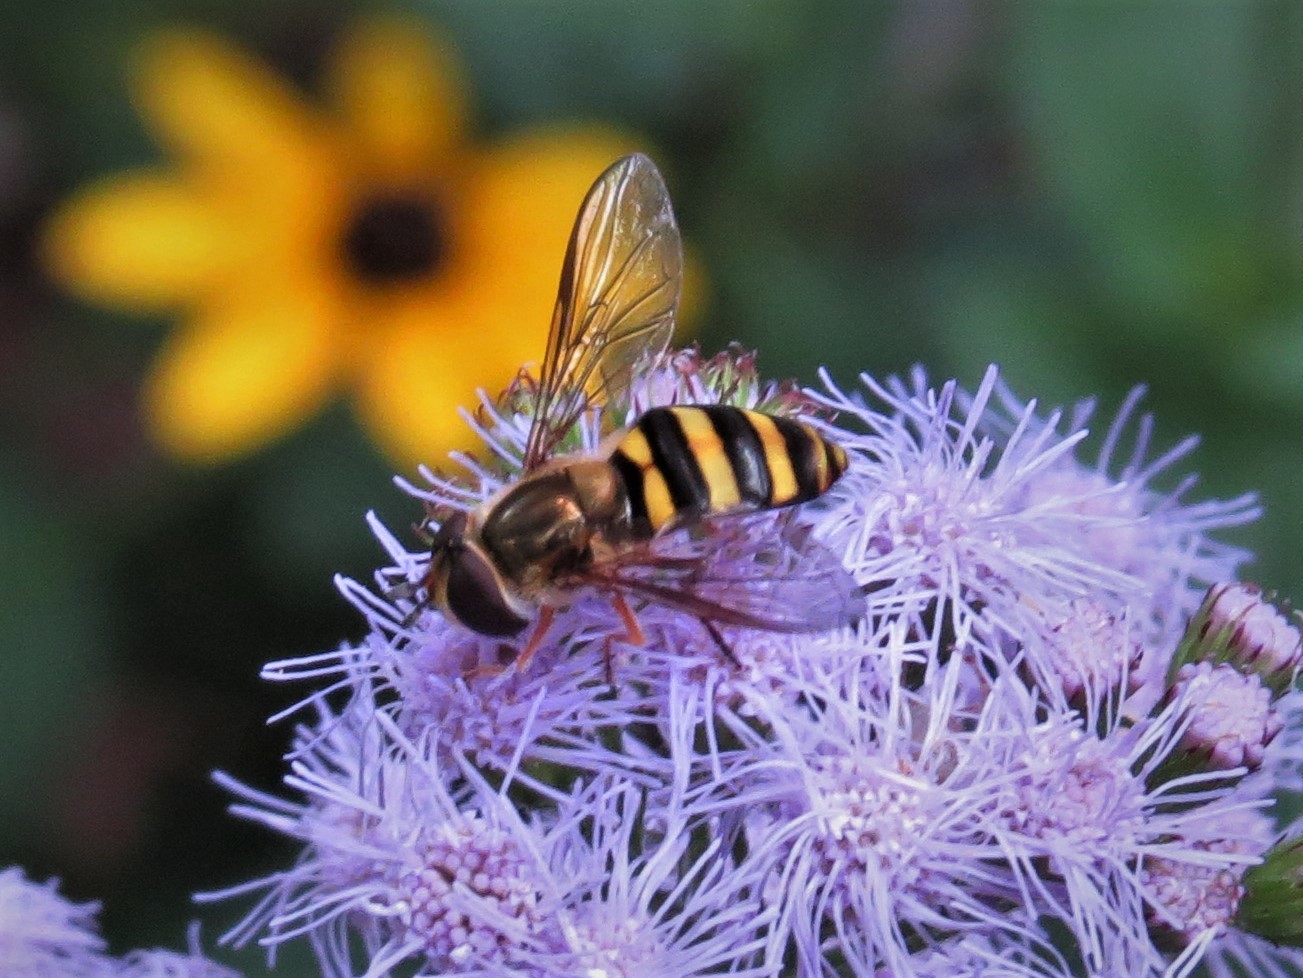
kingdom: Animalia
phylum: Arthropoda
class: Insecta
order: Diptera
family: Syrphidae
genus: Eupeodes
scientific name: Eupeodes
